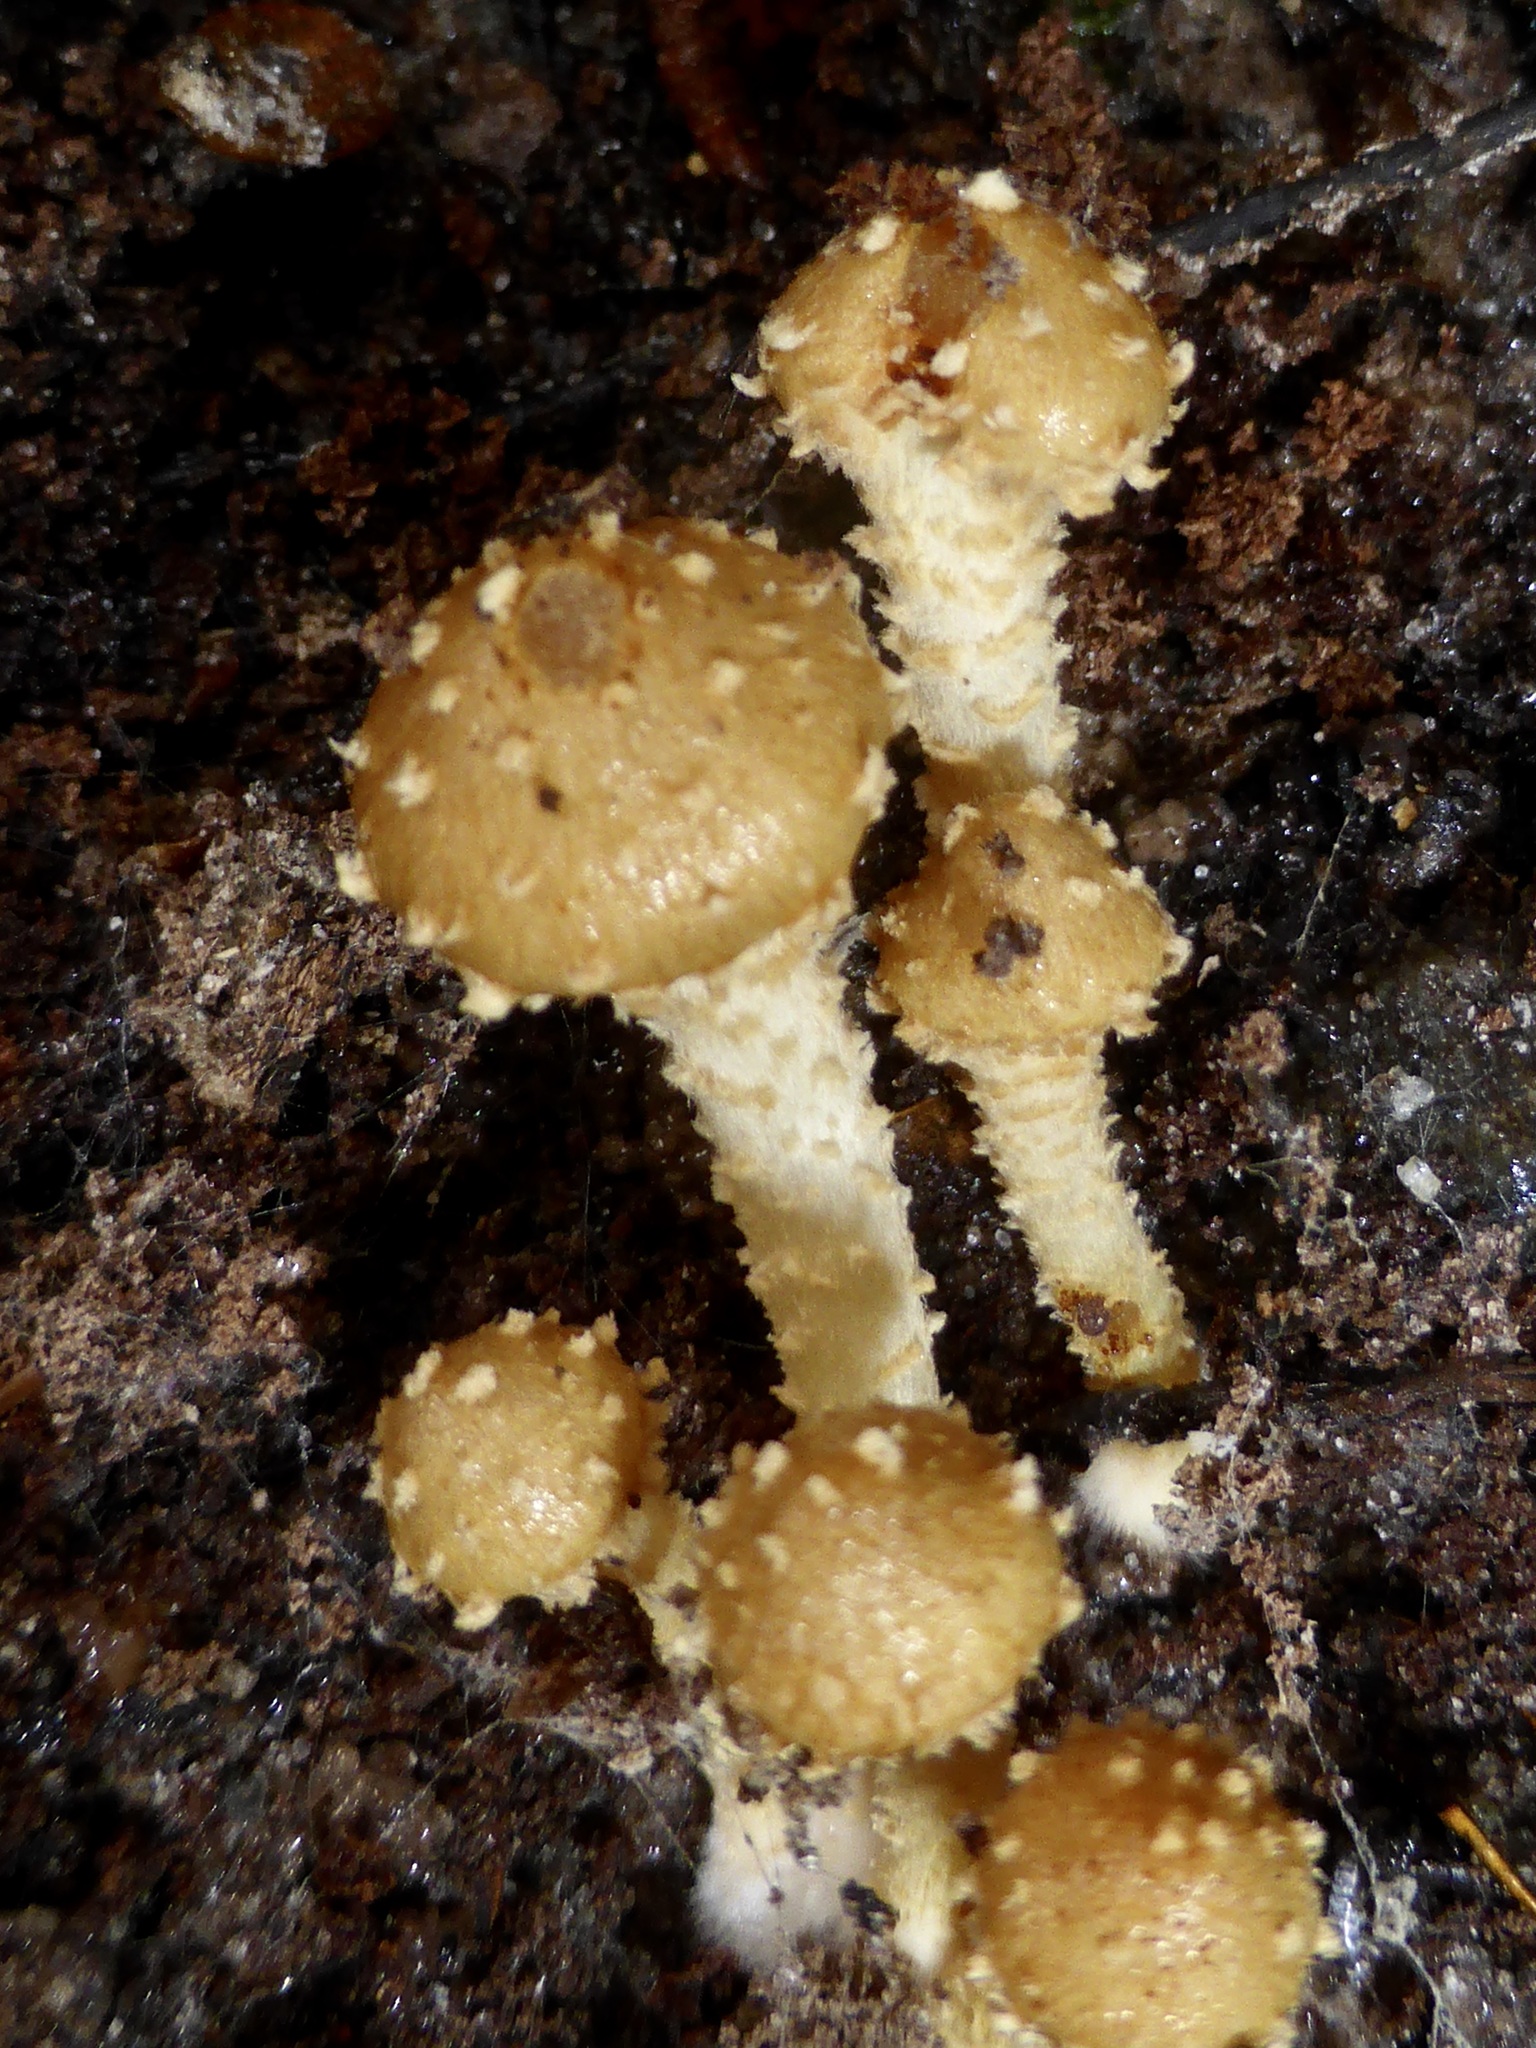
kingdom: Fungi
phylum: Basidiomycota
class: Agaricomycetes
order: Agaricales
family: Strophariaceae
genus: Pholiota
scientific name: Pholiota subflammans
